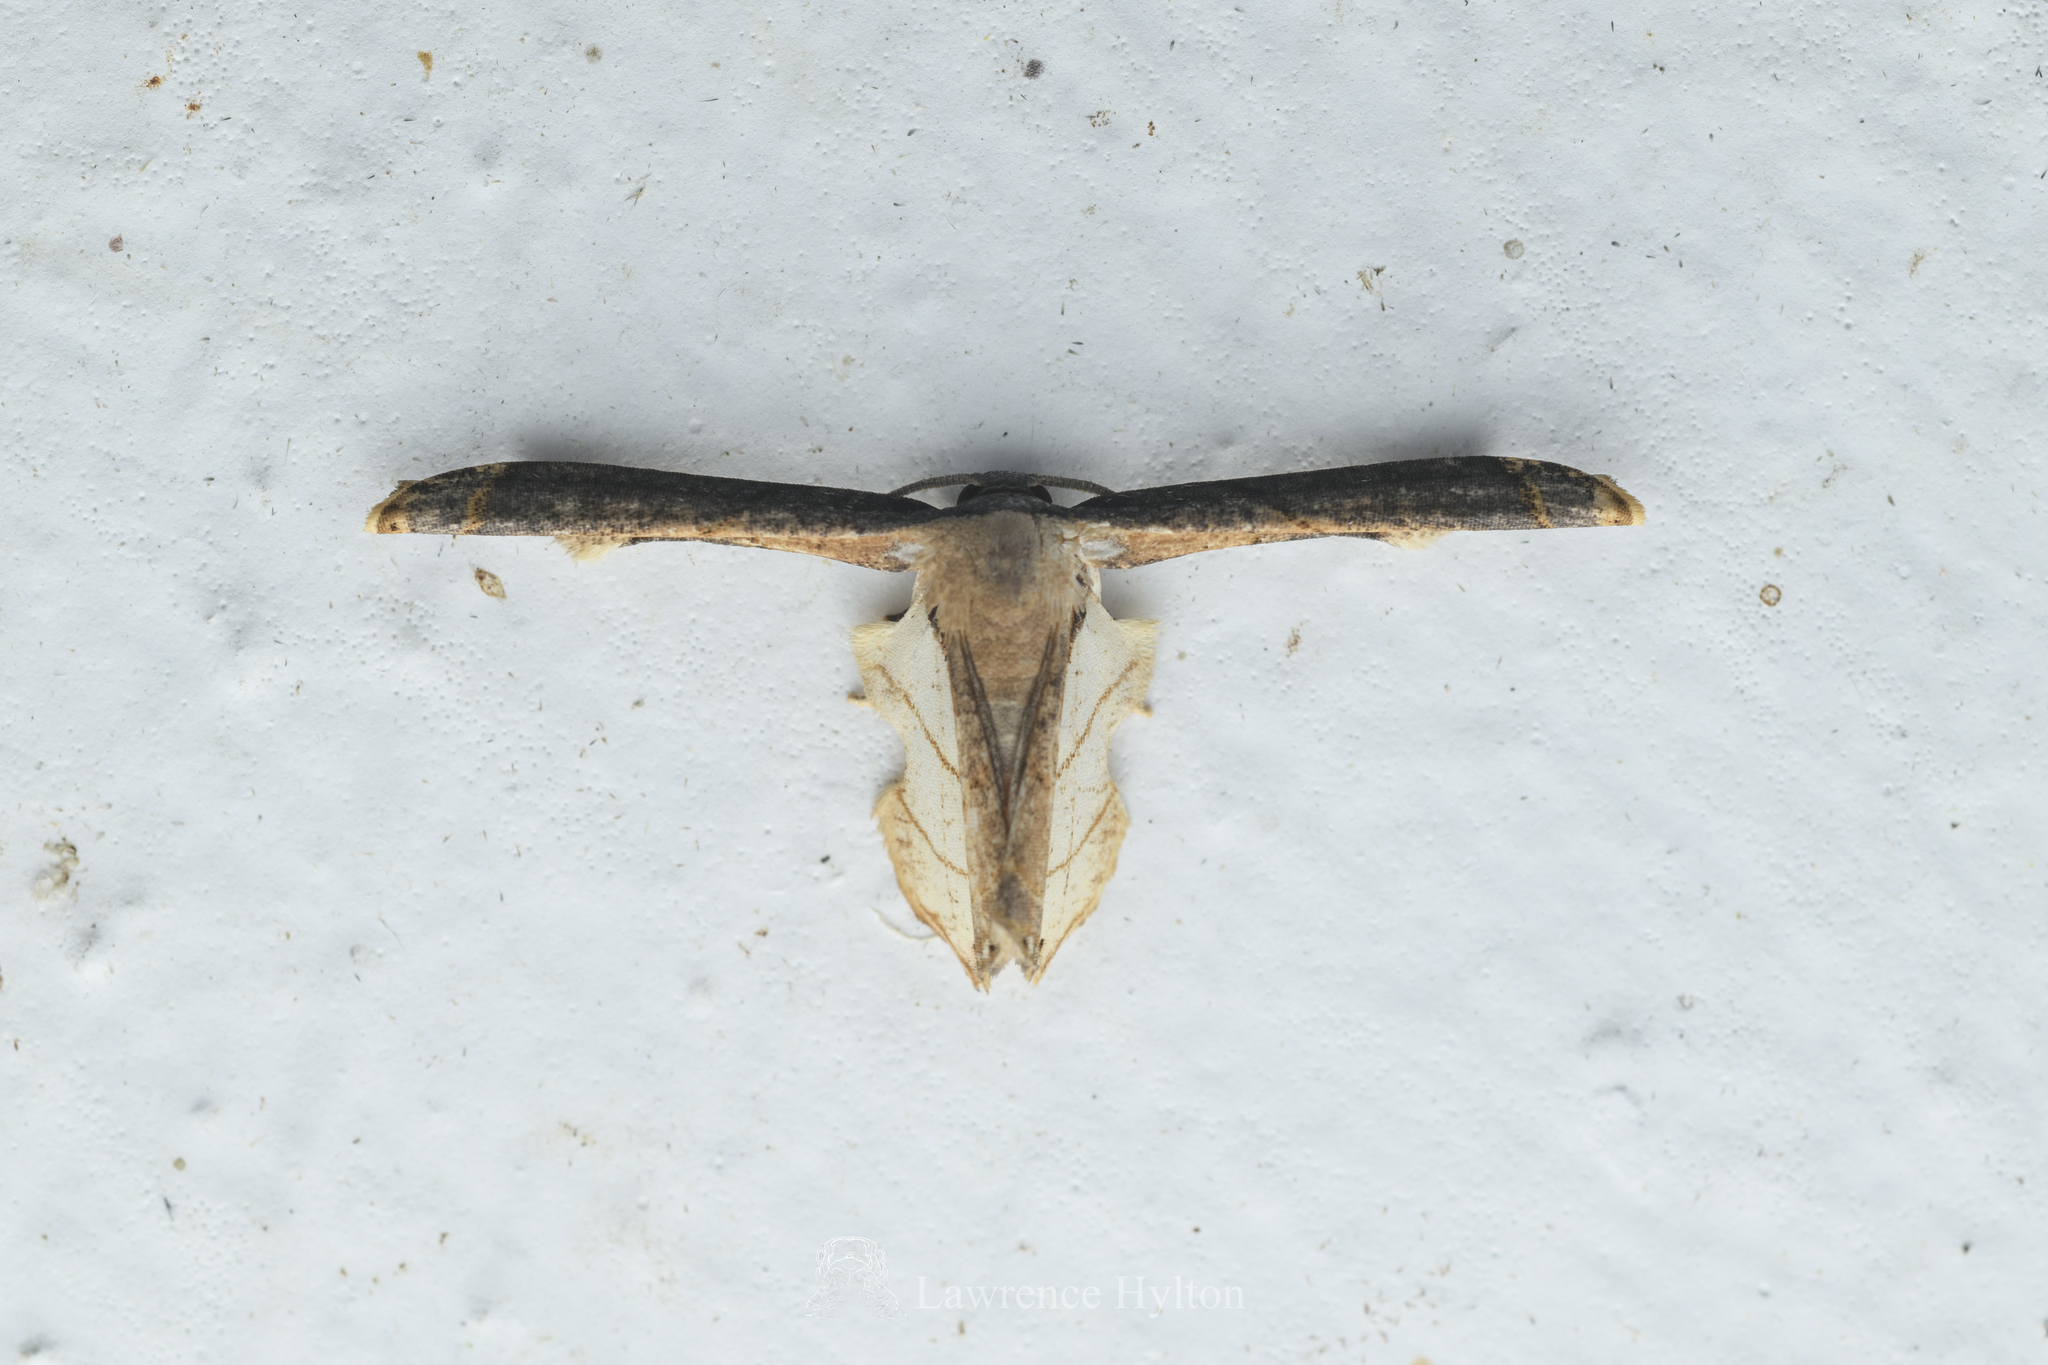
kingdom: Animalia
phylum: Arthropoda
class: Insecta
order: Lepidoptera
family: Uraniidae
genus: Warreniplema
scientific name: Warreniplema fumicosta
